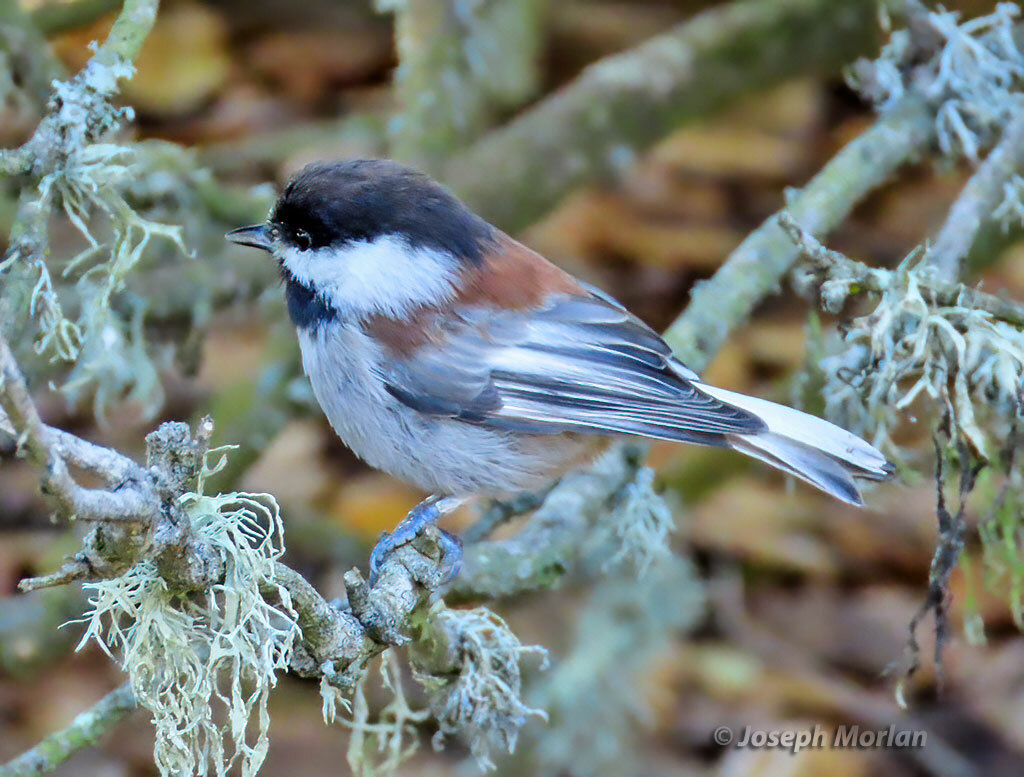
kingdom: Animalia
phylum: Chordata
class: Aves
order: Passeriformes
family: Paridae
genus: Poecile
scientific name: Poecile rufescens
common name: Chestnut-backed chickadee
